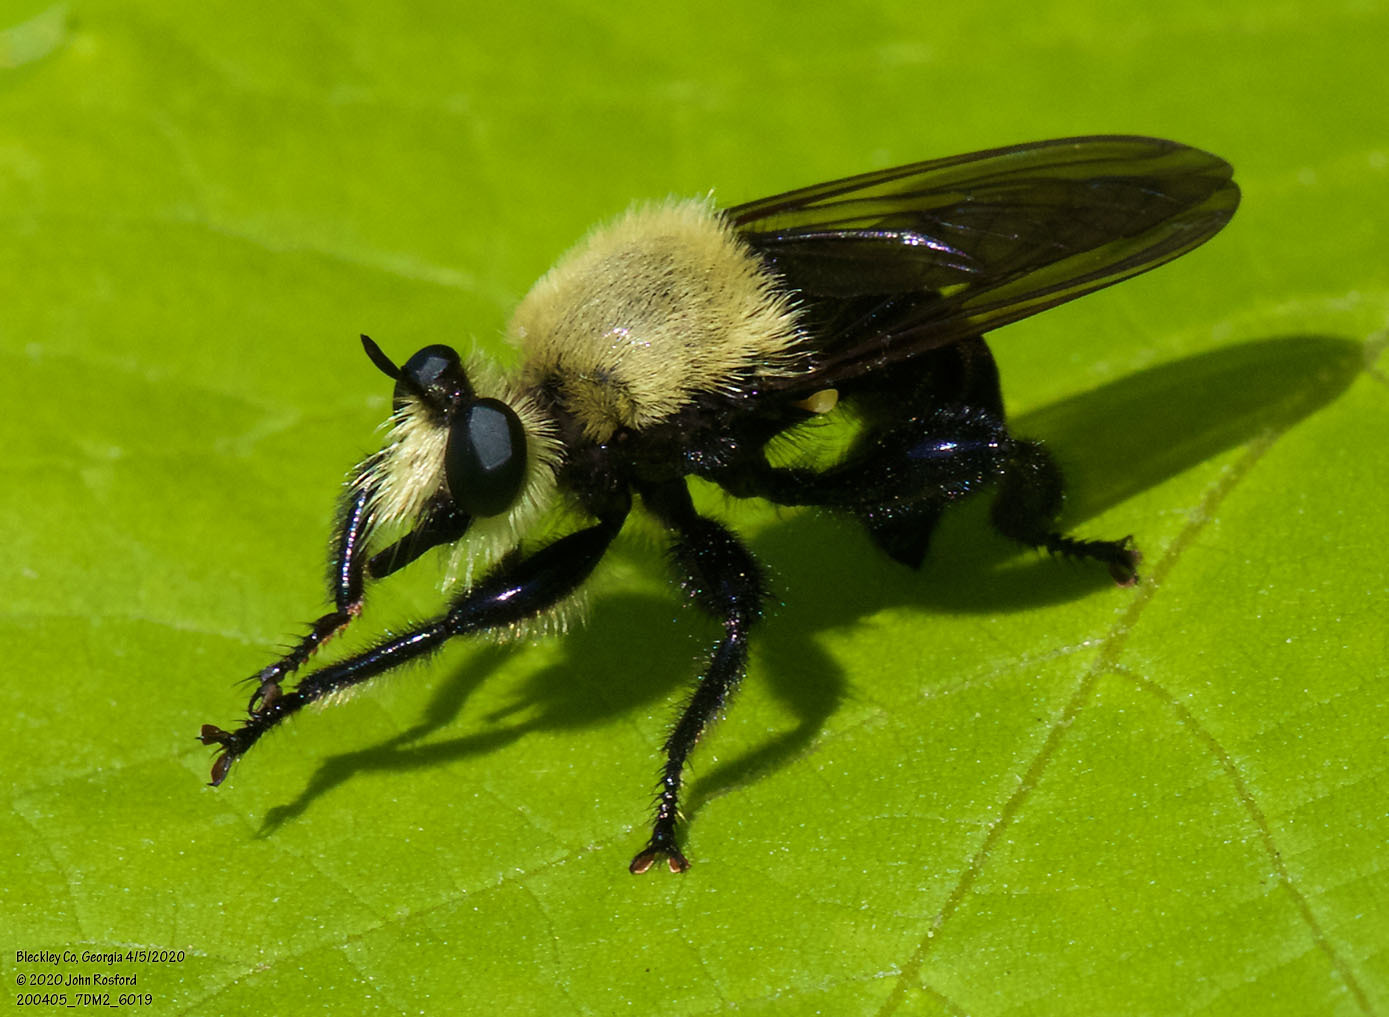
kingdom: Animalia
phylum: Arthropoda
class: Insecta
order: Diptera
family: Asilidae
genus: Laphria
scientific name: Laphria virginica
